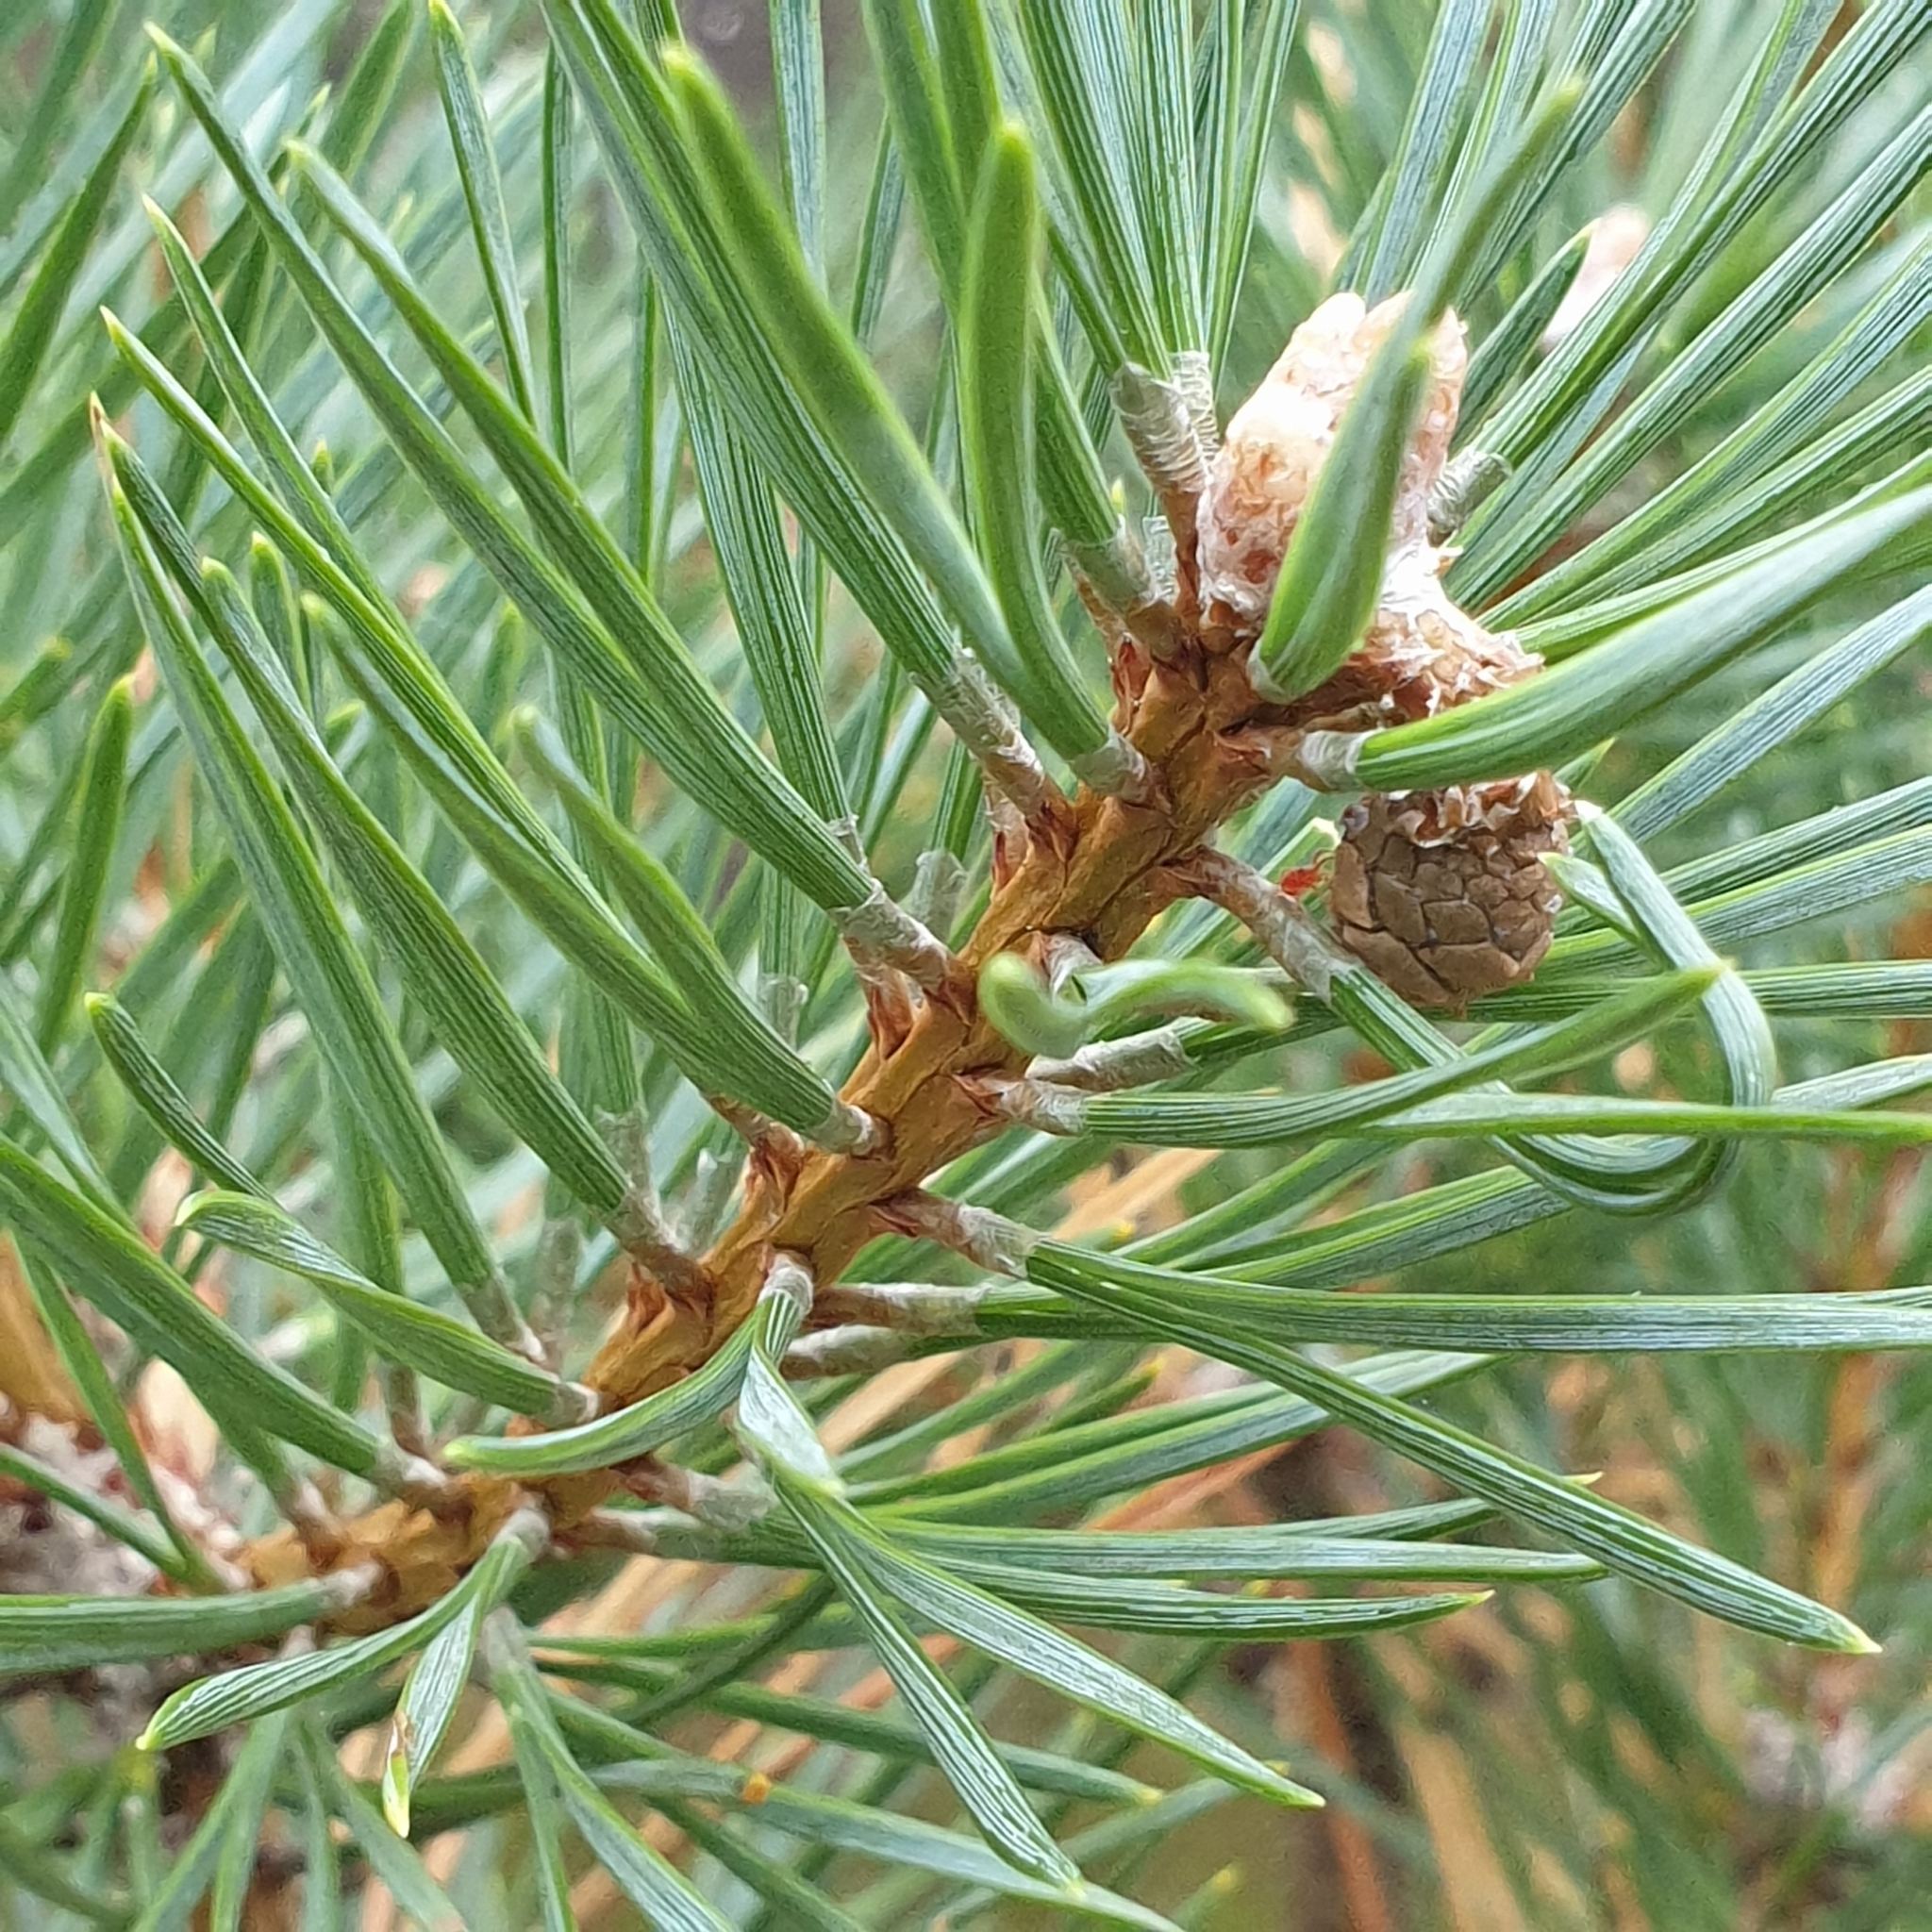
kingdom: Plantae
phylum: Tracheophyta
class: Pinopsida
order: Pinales
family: Pinaceae
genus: Pinus
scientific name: Pinus sylvestris
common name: Scots pine
